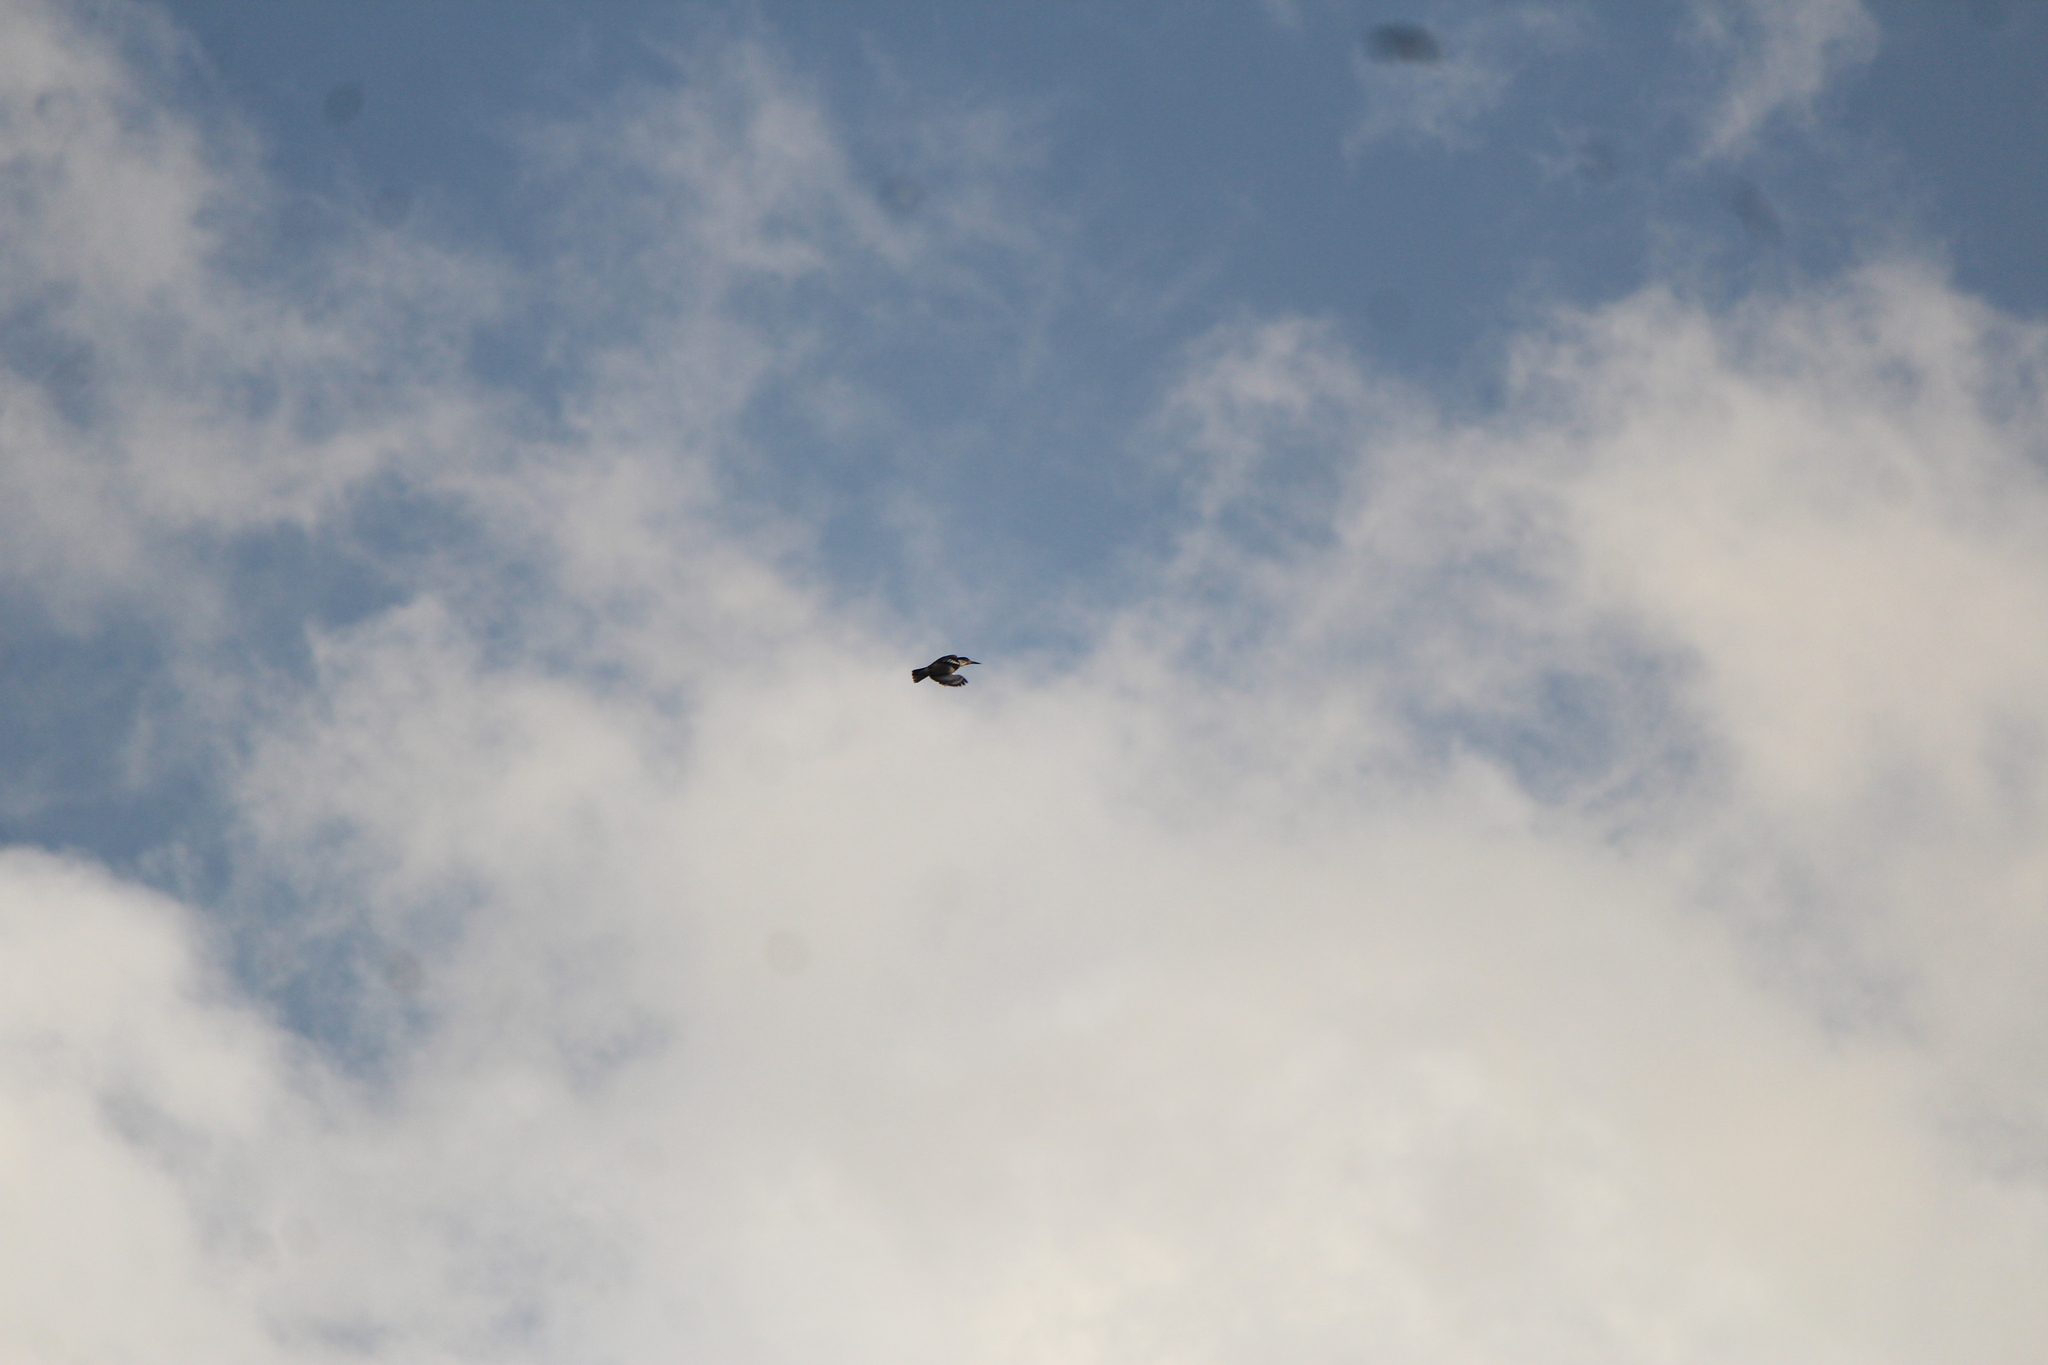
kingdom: Animalia
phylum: Chordata
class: Aves
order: Coraciiformes
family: Alcedinidae
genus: Megaceryle
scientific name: Megaceryle alcyon
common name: Belted kingfisher
